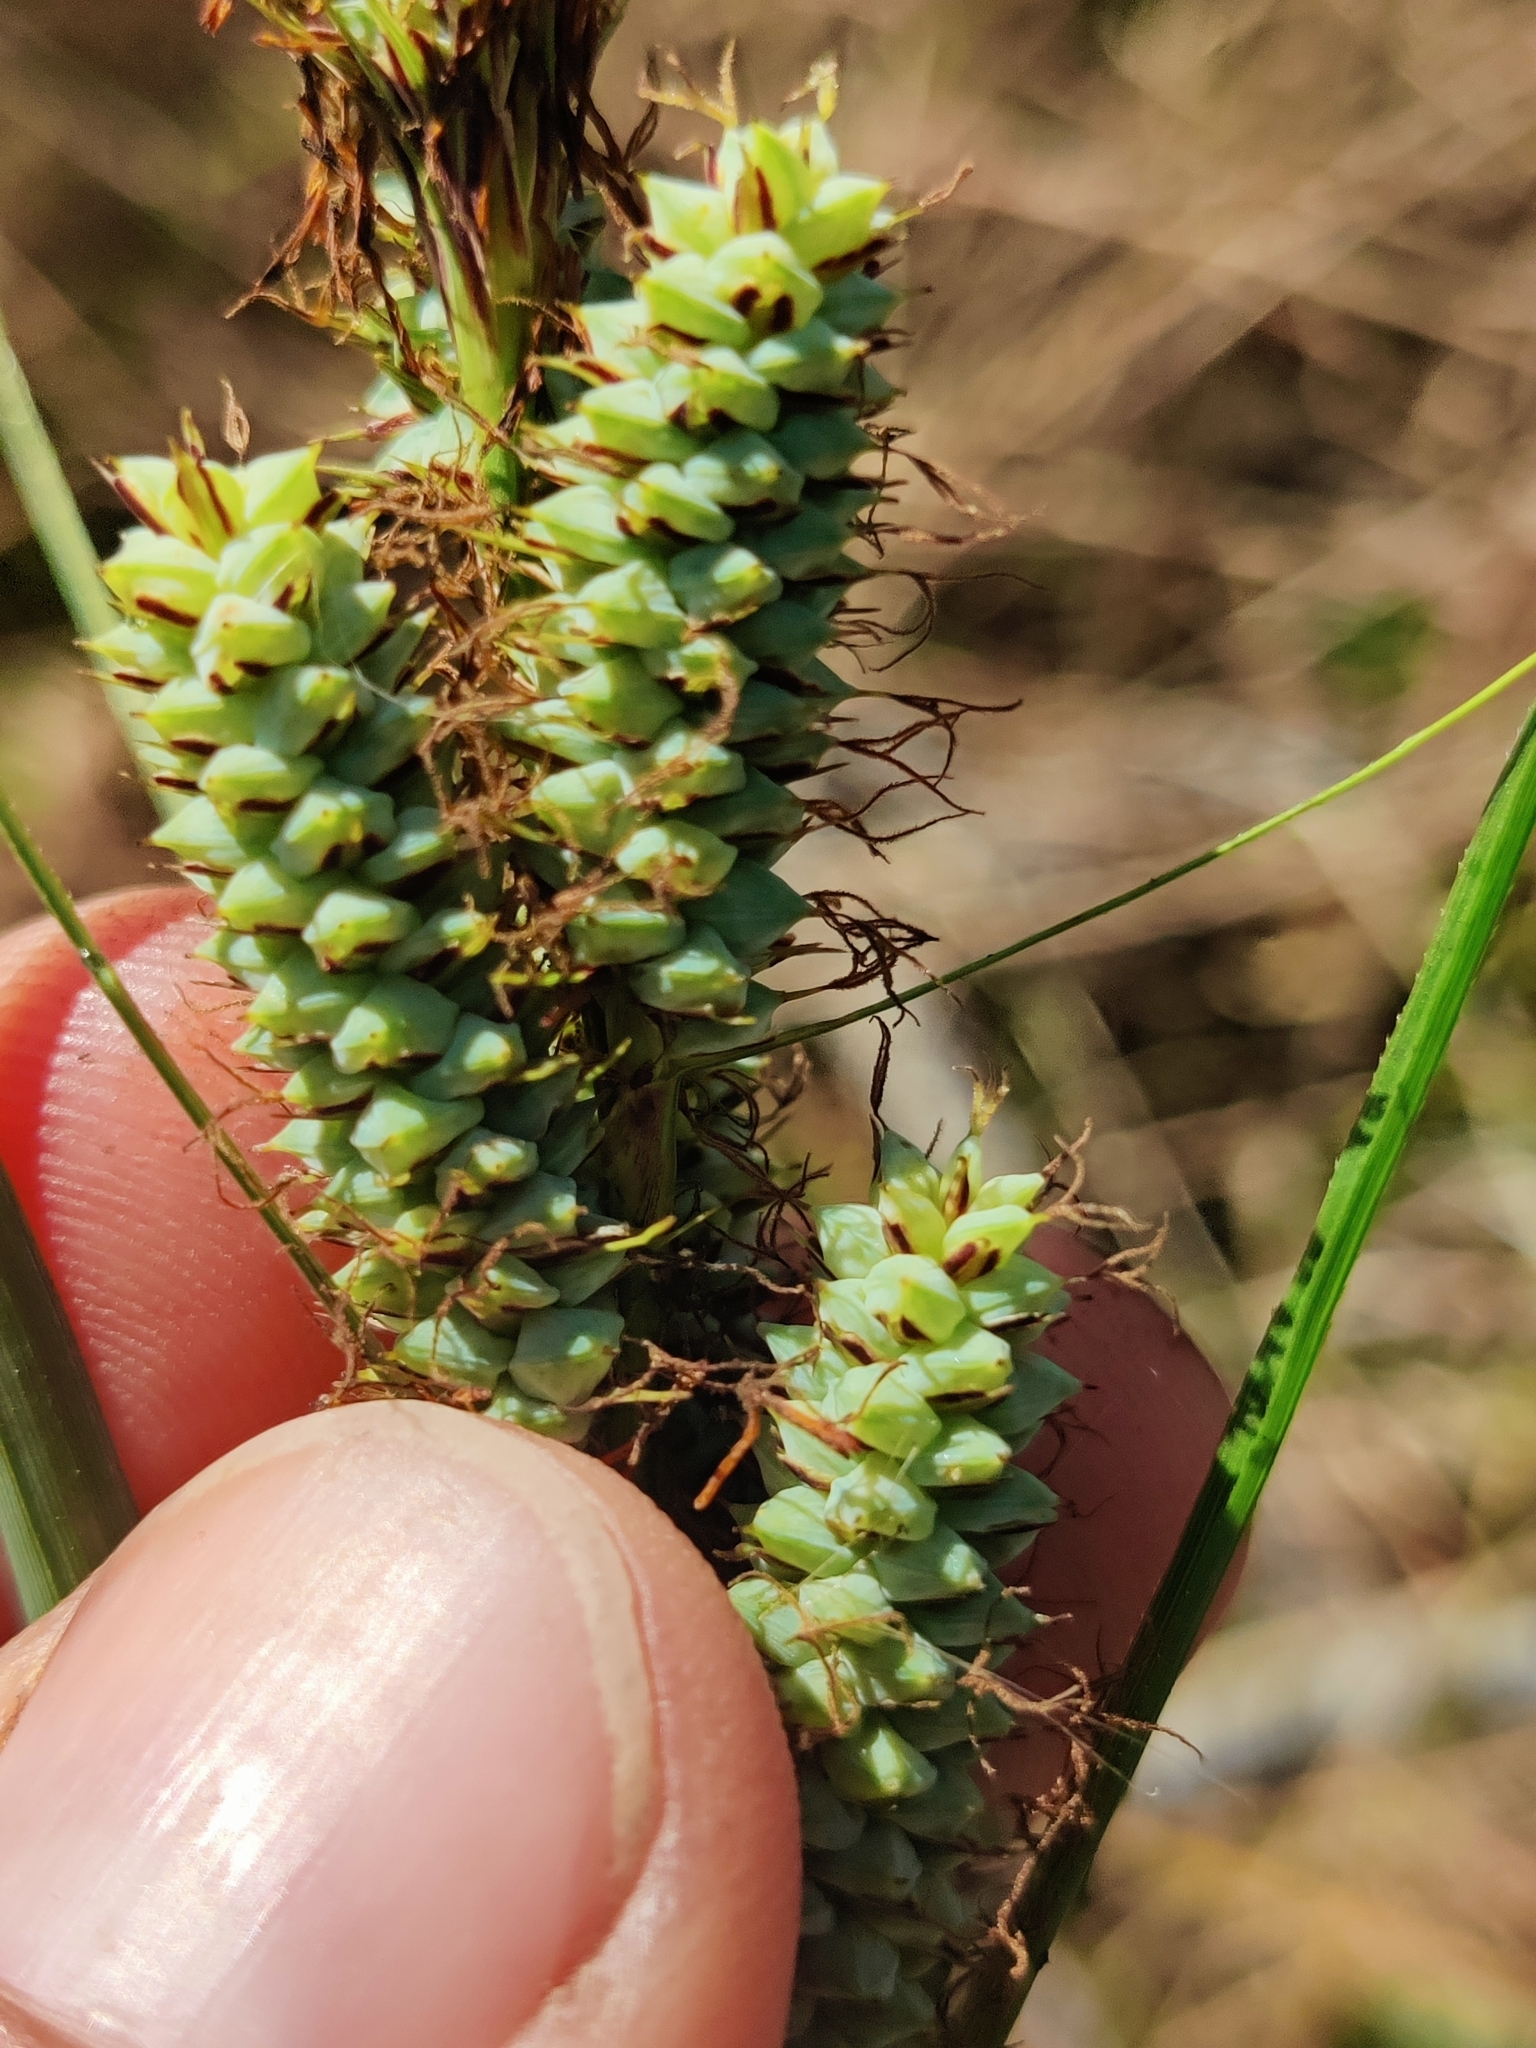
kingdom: Plantae
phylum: Tracheophyta
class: Liliopsida
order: Poales
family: Cyperaceae
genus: Carex
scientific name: Carex verrucosa
